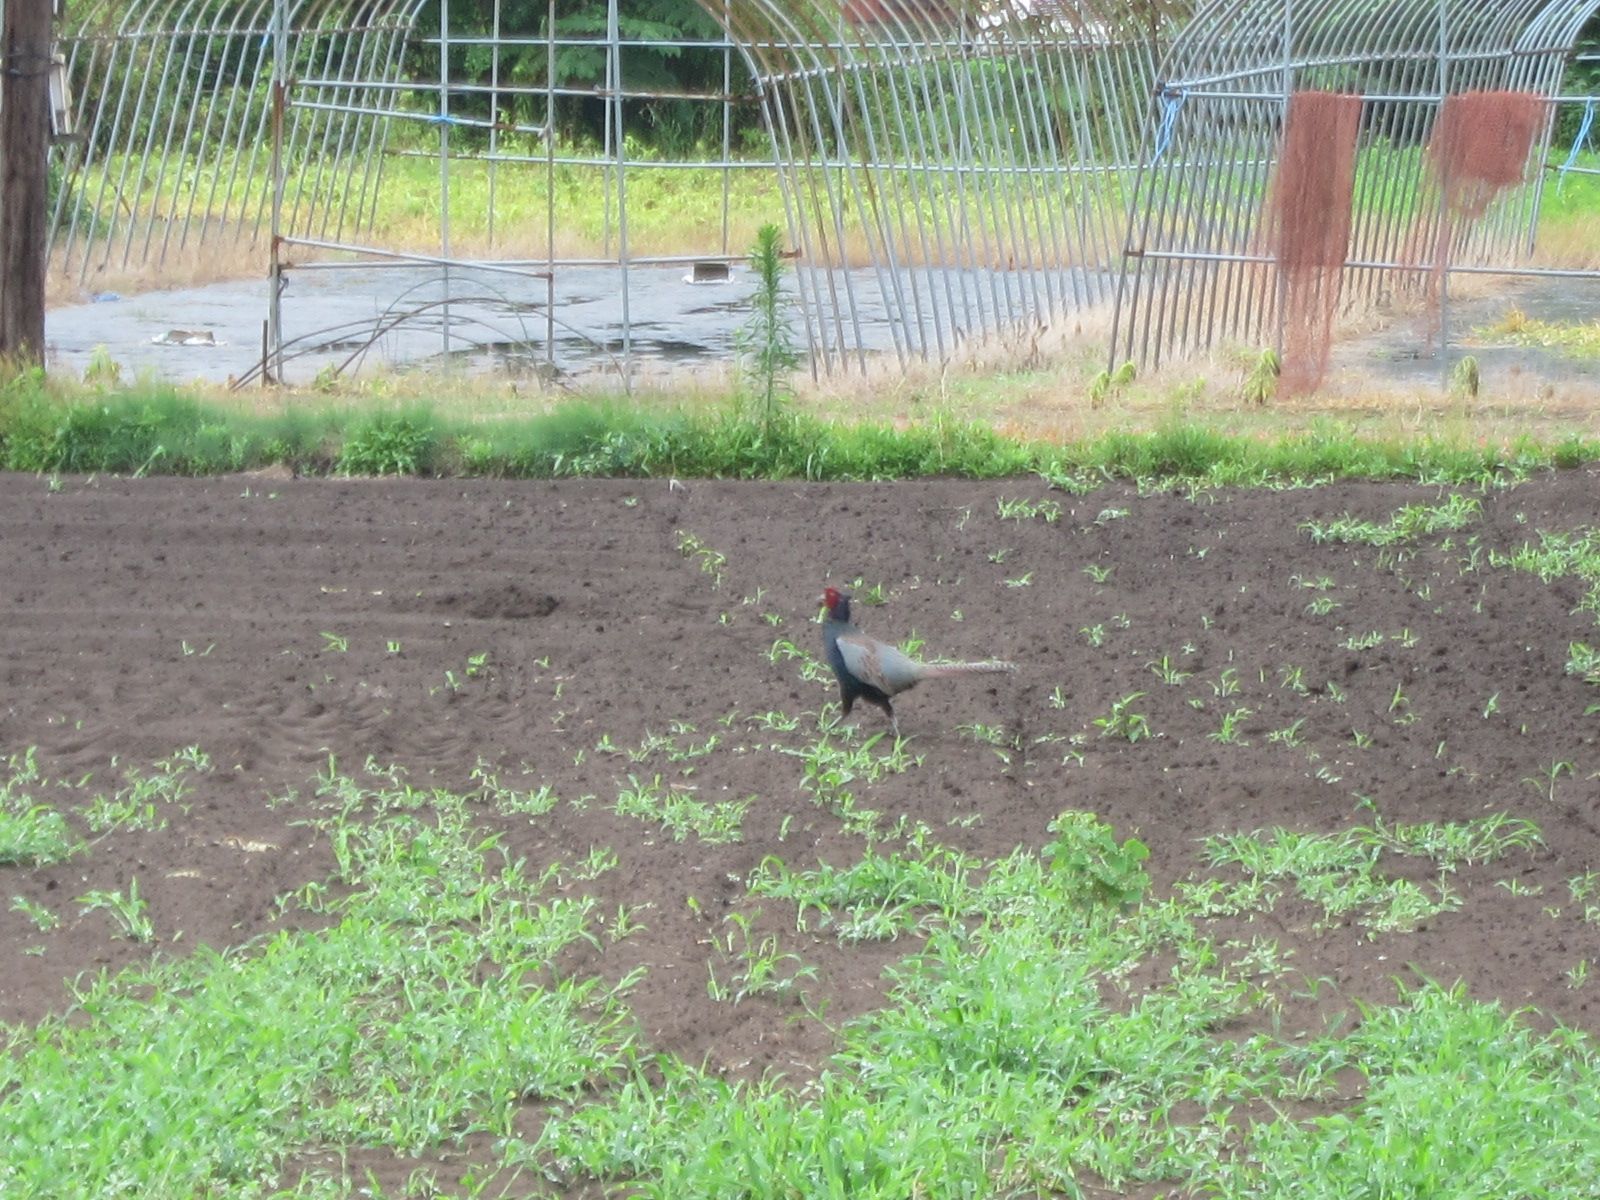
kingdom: Animalia
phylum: Chordata
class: Aves
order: Galliformes
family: Phasianidae
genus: Phasianus
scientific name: Phasianus versicolor
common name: Green pheasant
